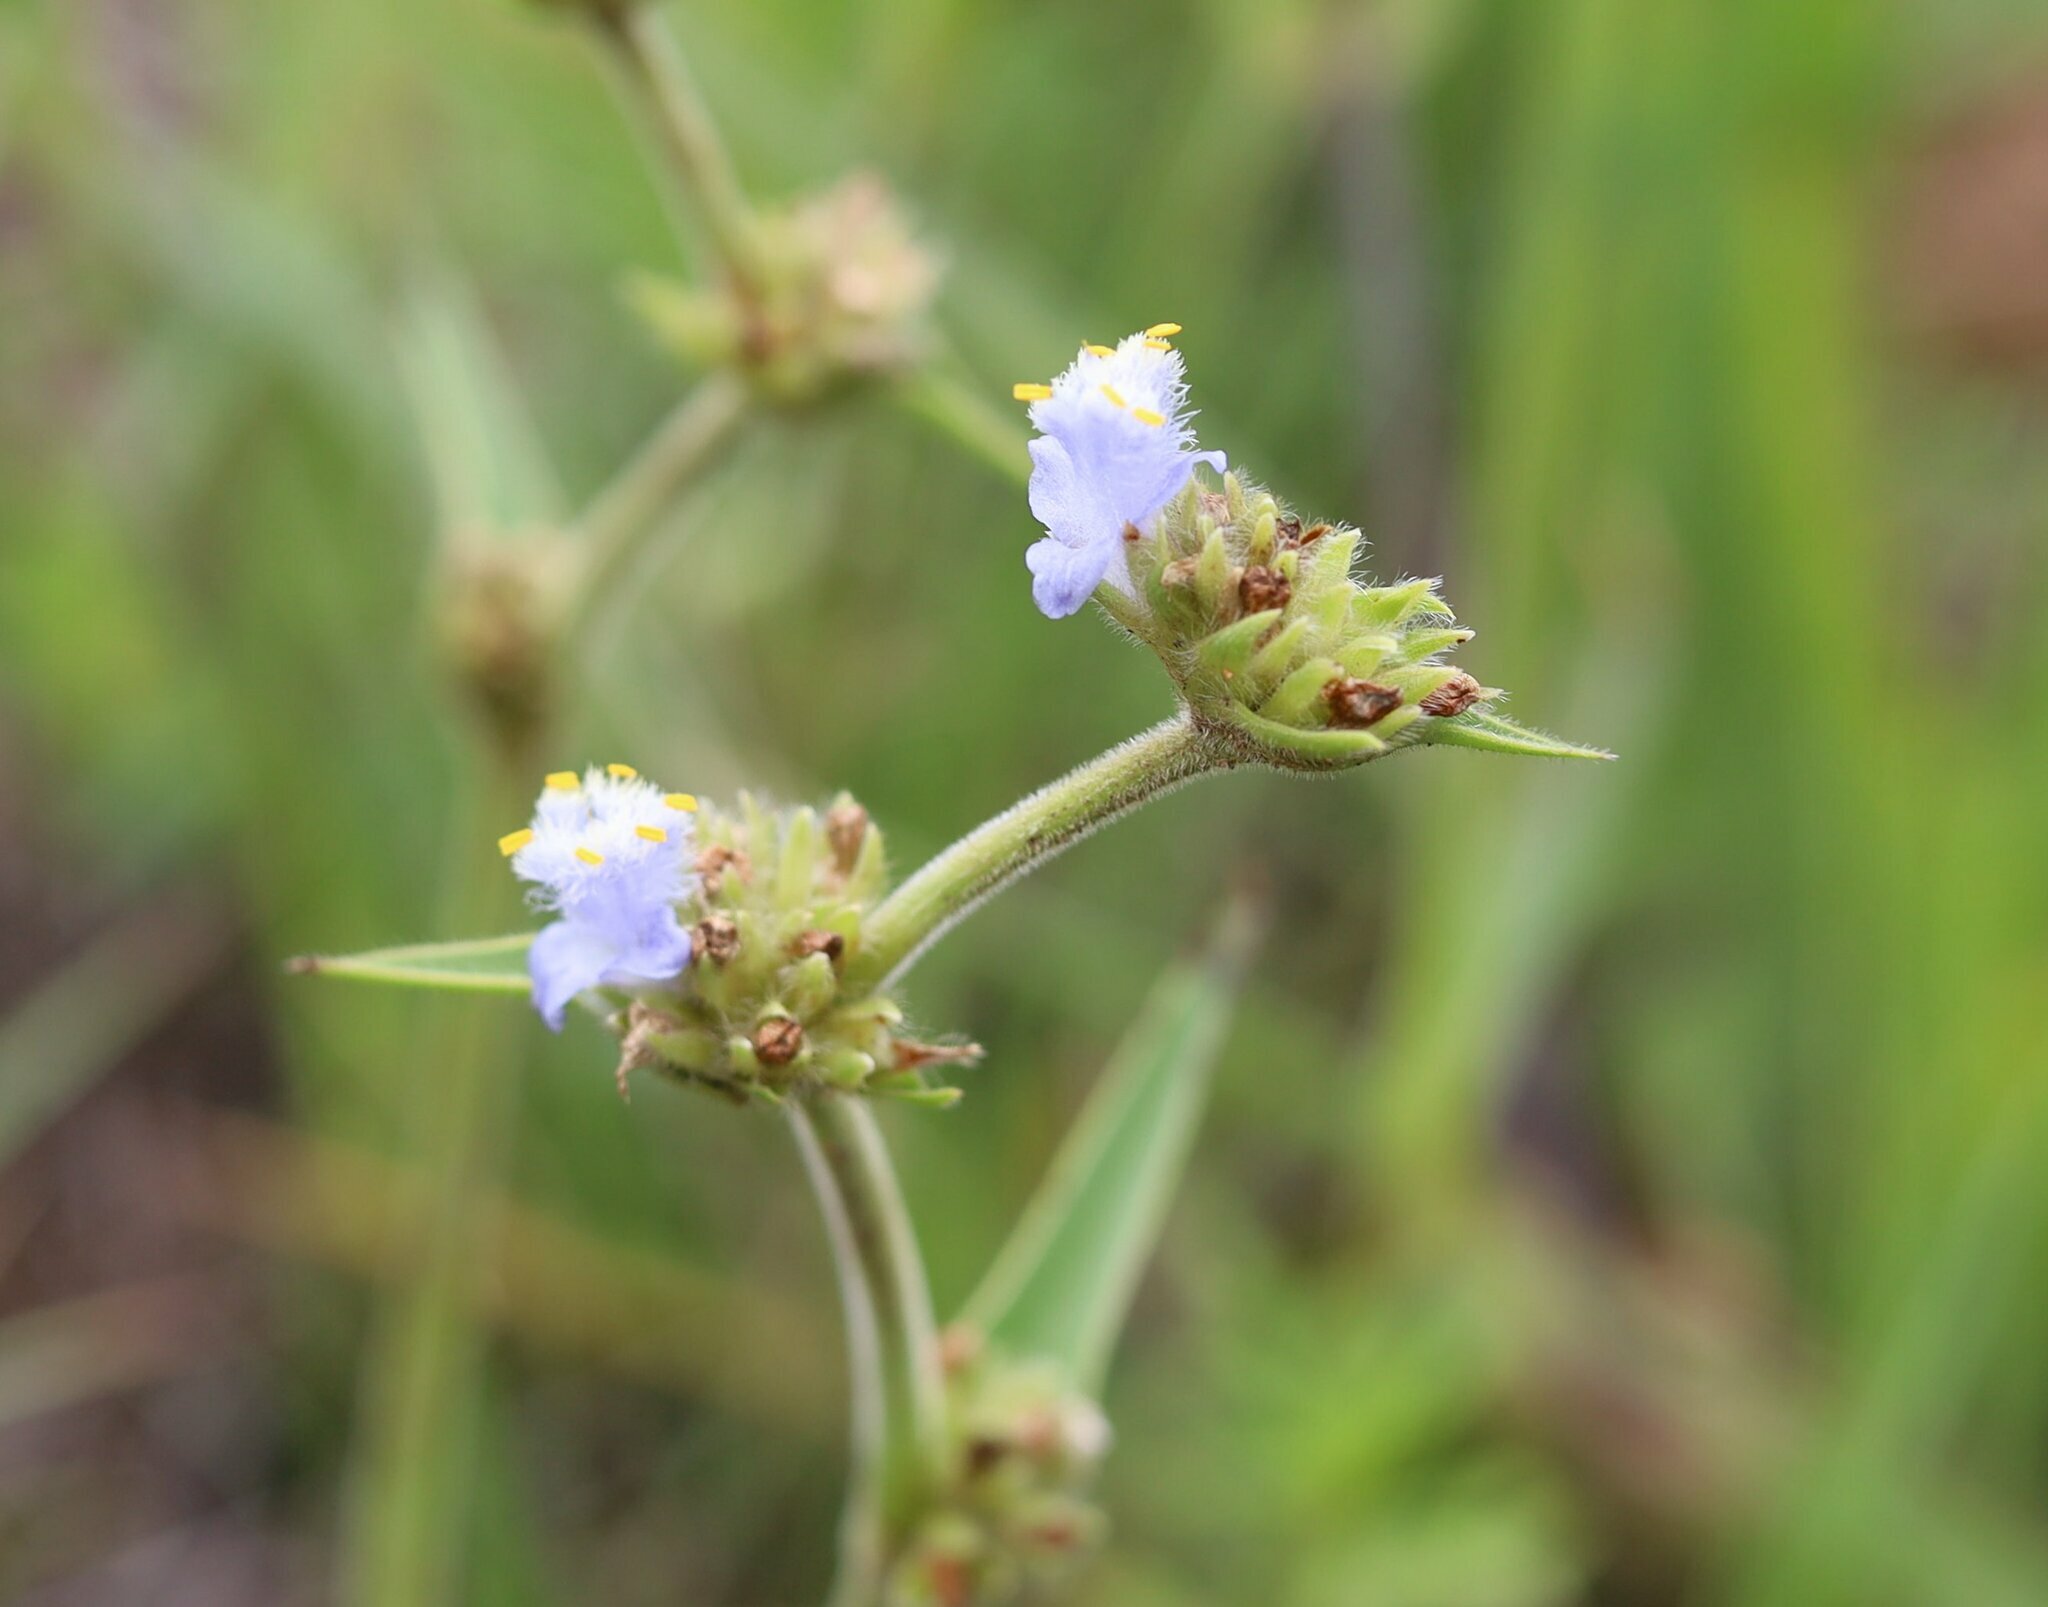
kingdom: Plantae
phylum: Tracheophyta
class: Liliopsida
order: Commelinales
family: Commelinaceae
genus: Cyanotis
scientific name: Cyanotis speciosa
